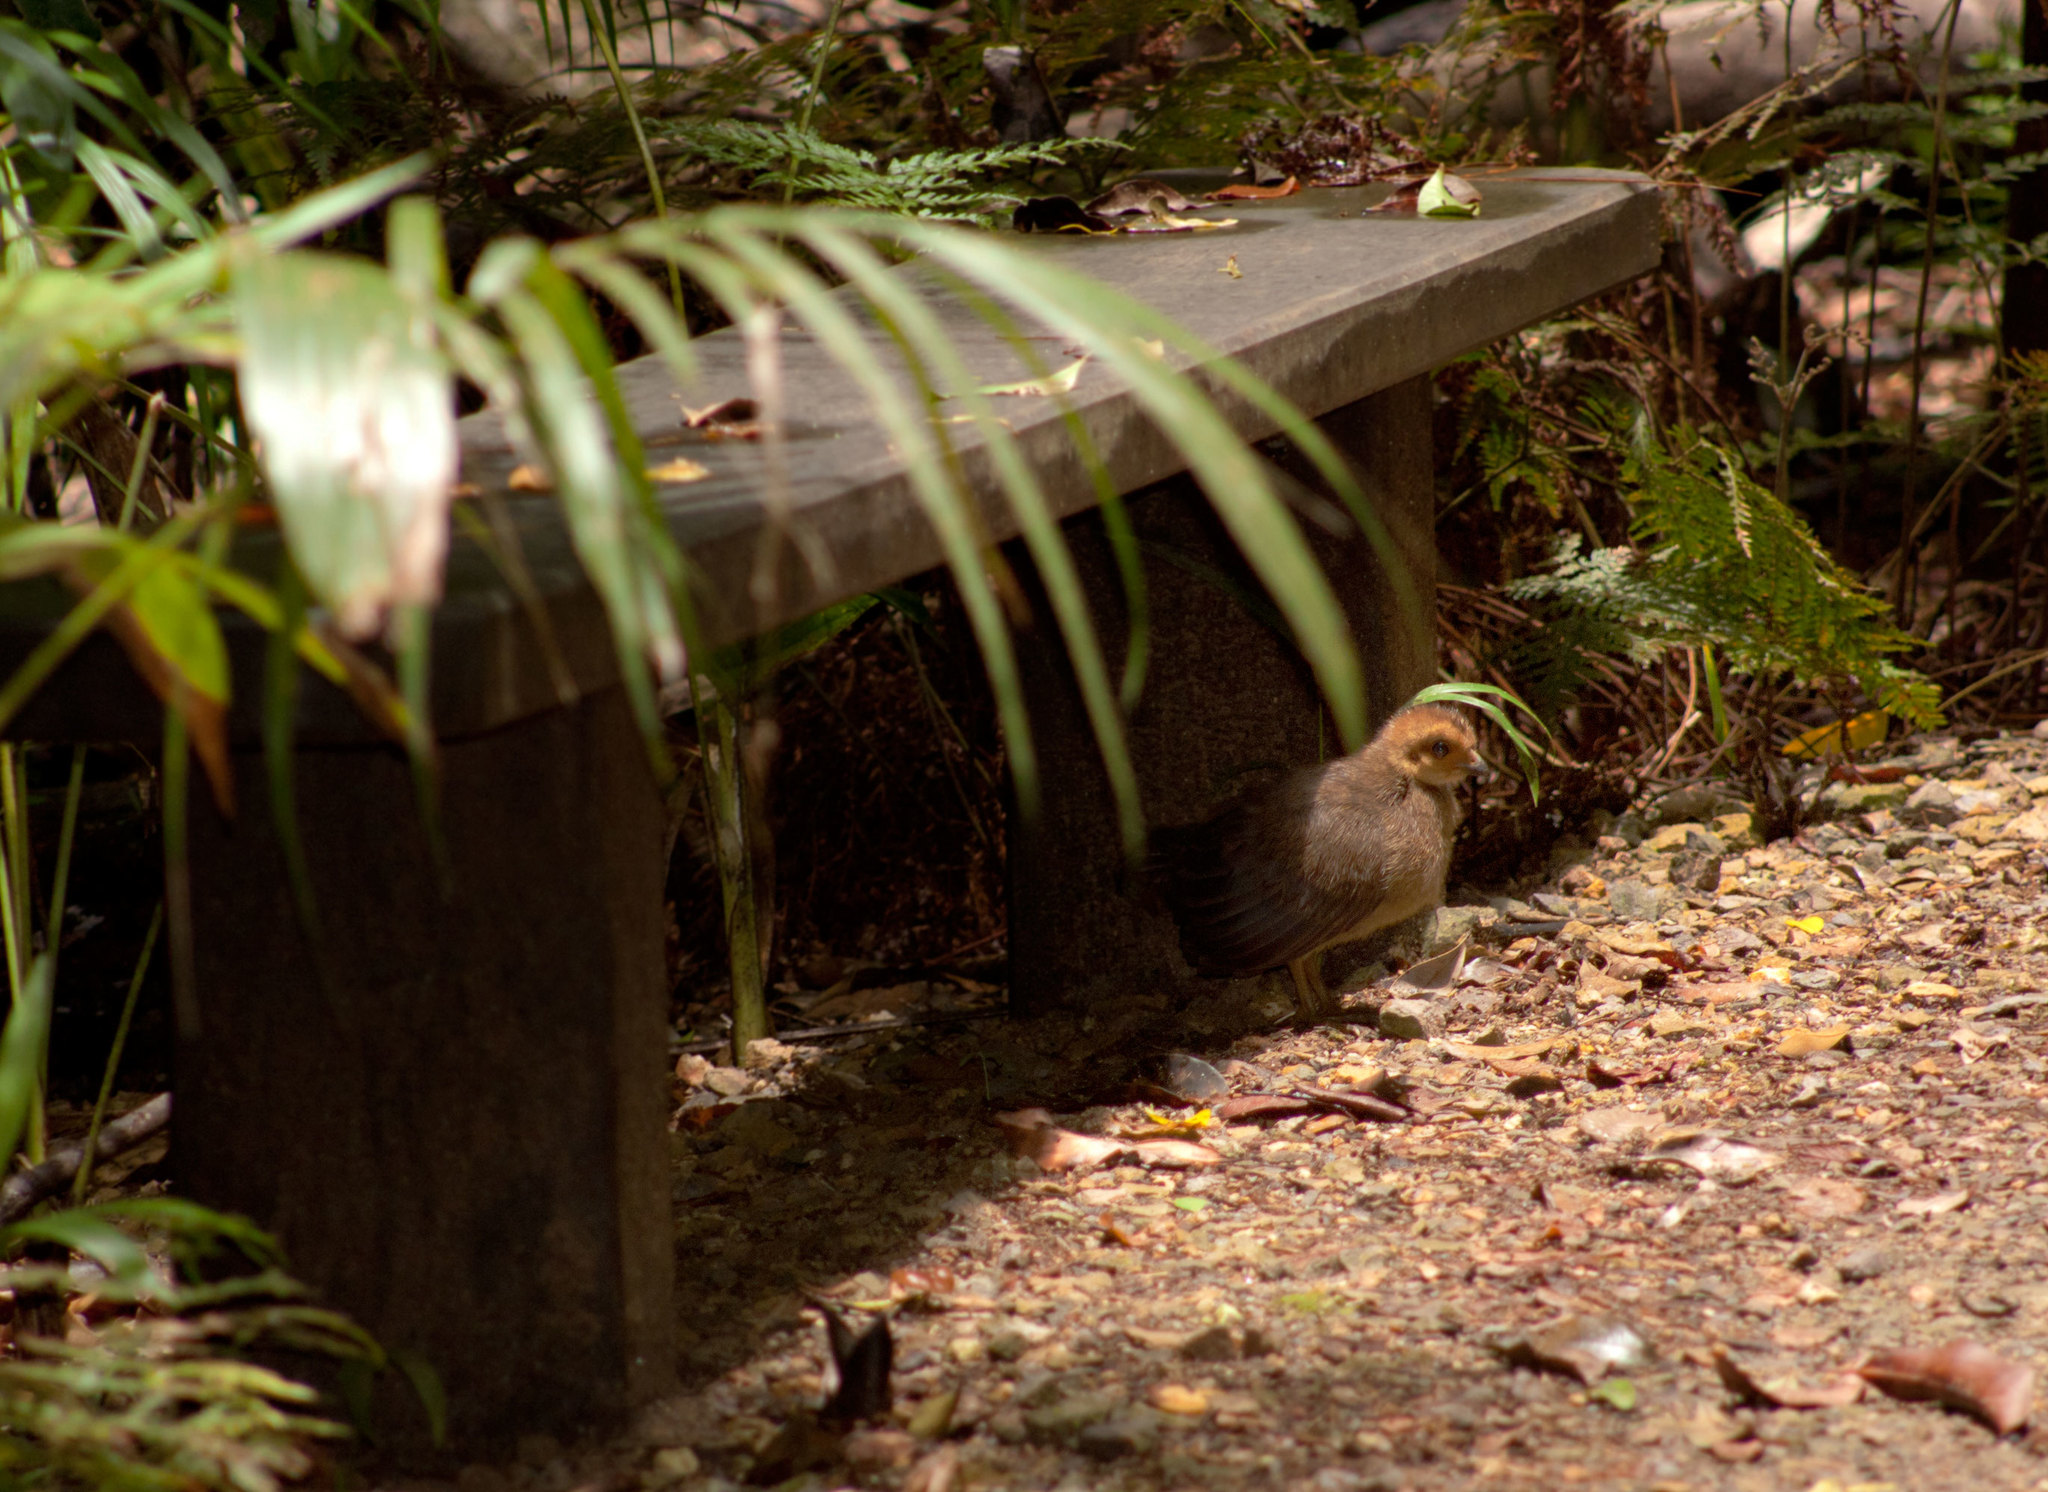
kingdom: Animalia
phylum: Chordata
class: Aves
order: Galliformes
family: Megapodiidae
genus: Alectura
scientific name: Alectura lathami
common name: Australian brushturkey
